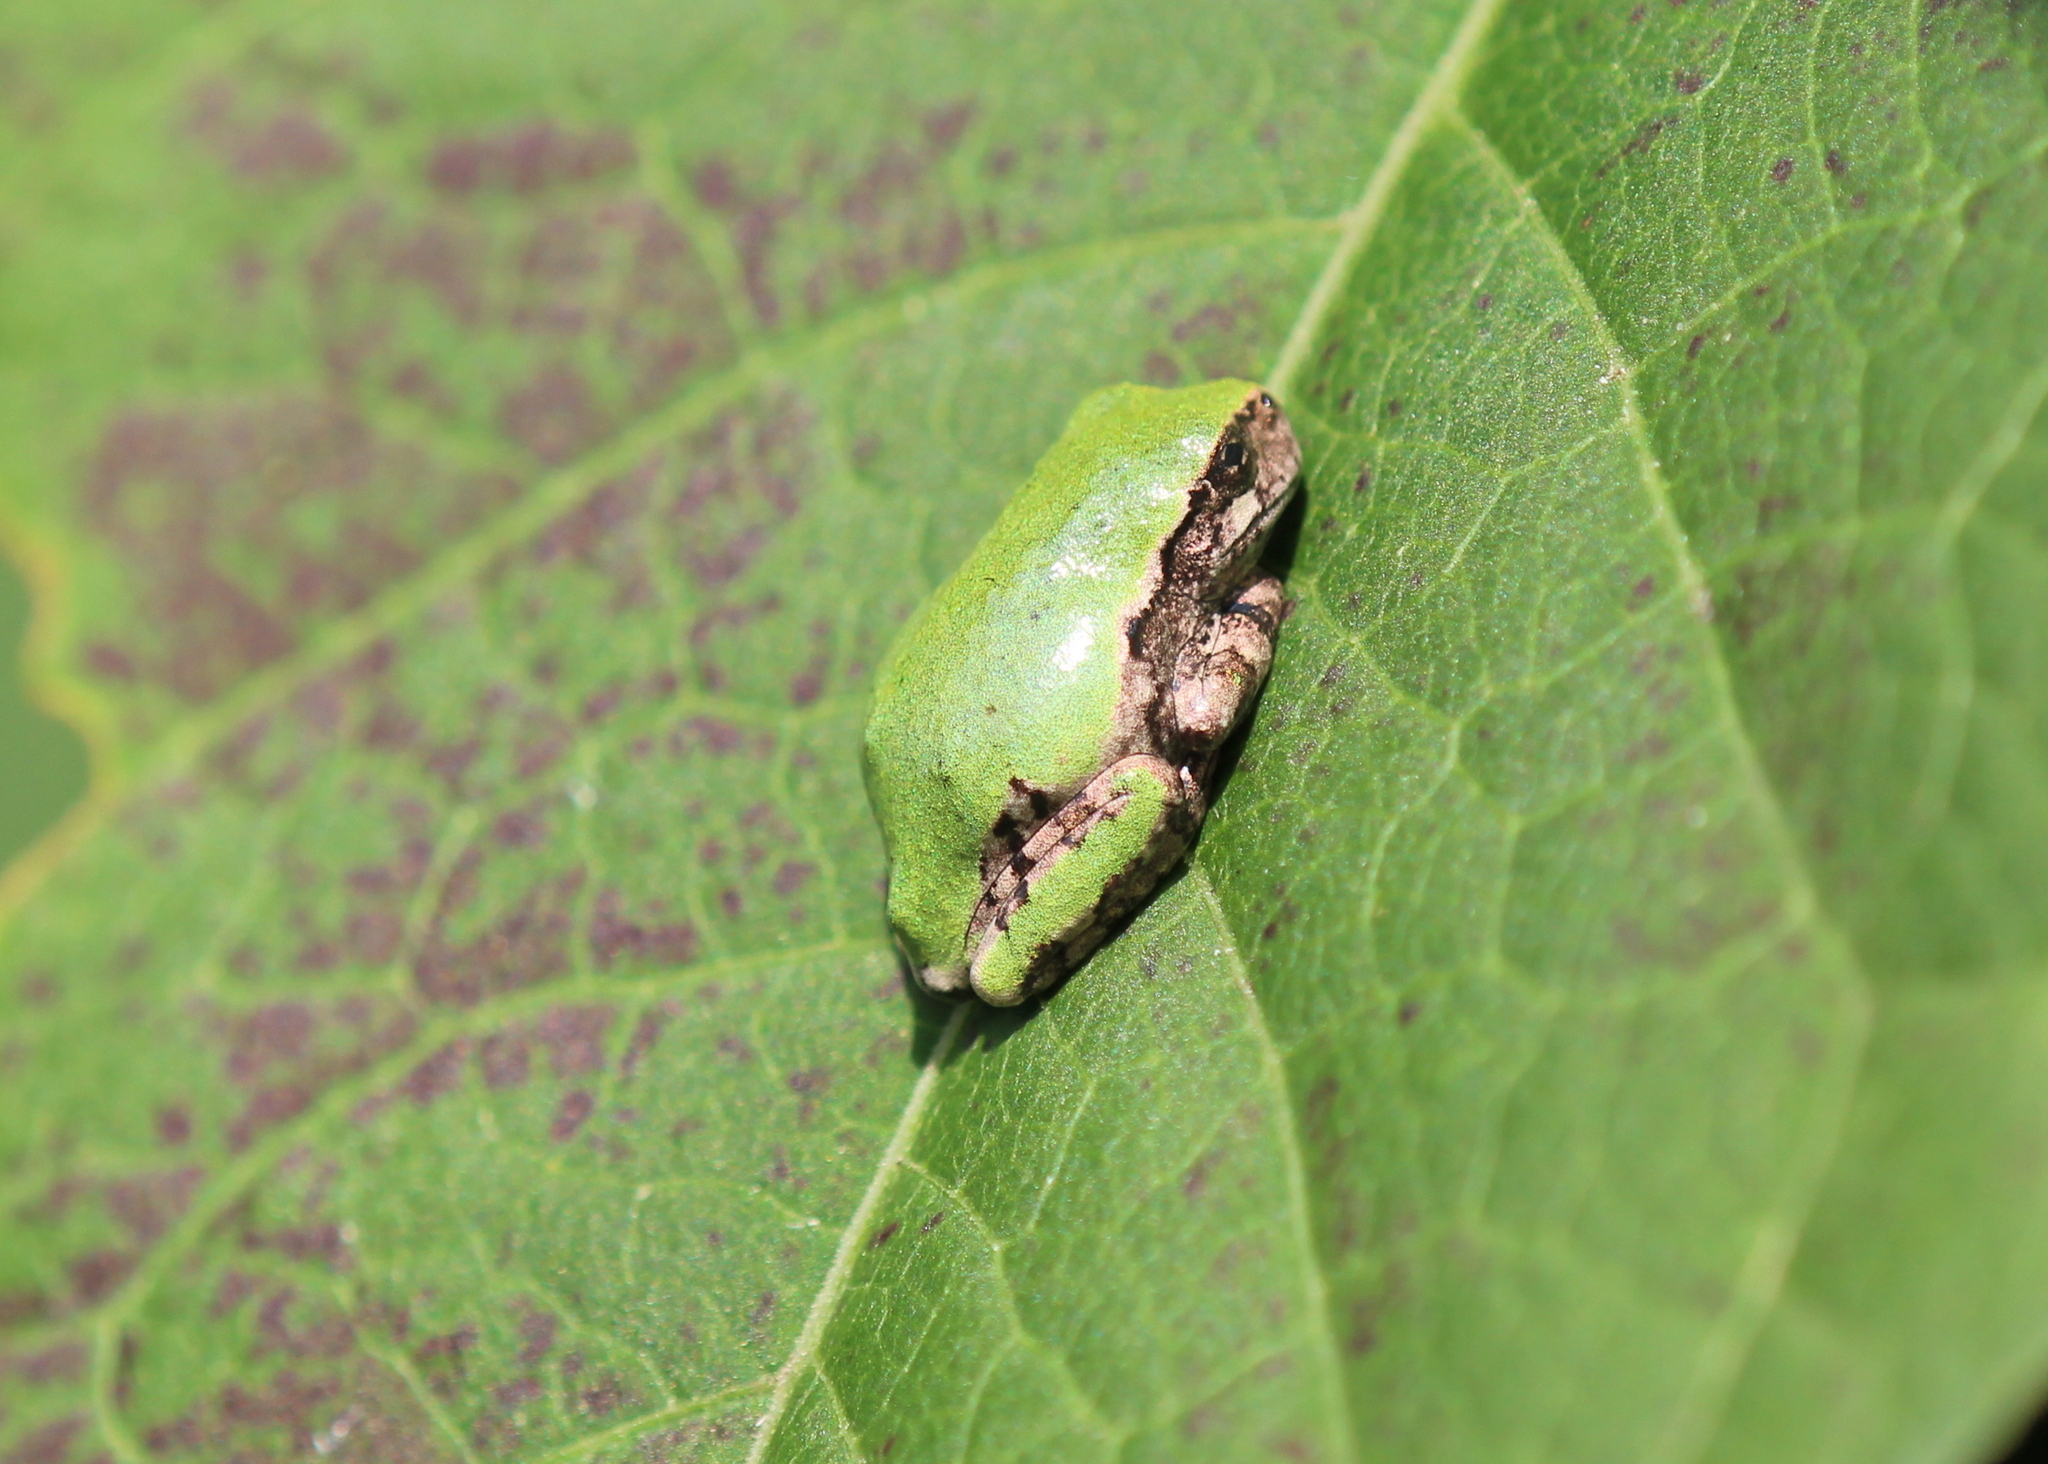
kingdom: Animalia
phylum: Chordata
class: Amphibia
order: Anura
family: Hylidae
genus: Dryophytes
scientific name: Dryophytes versicolor
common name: Gray treefrog
